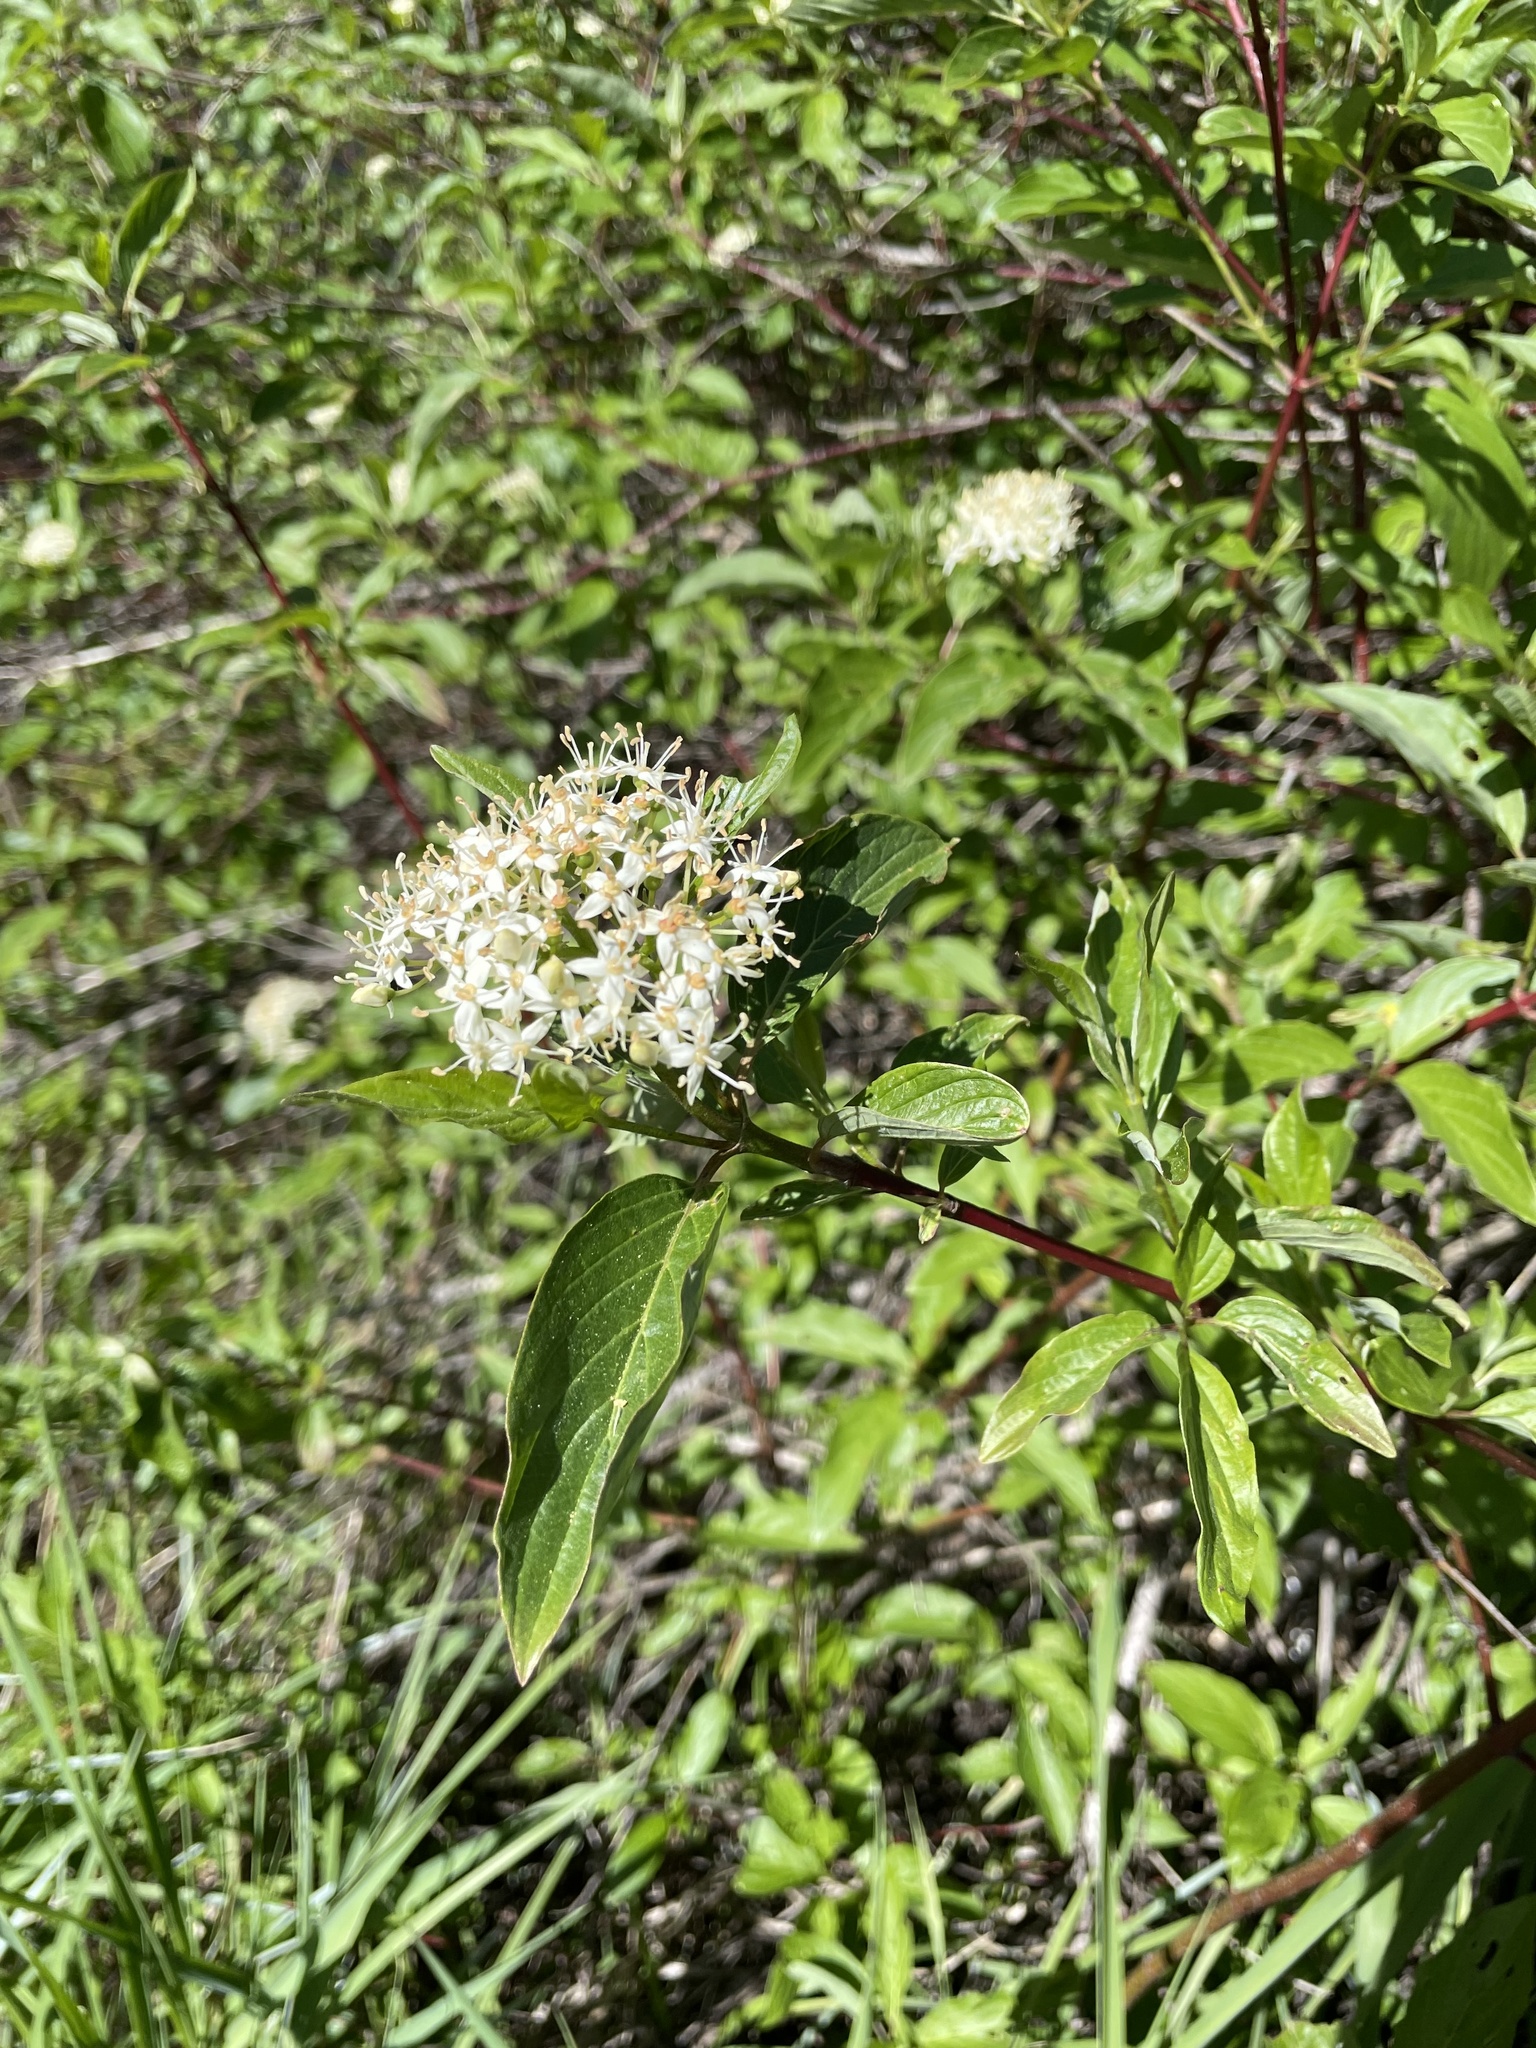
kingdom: Plantae
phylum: Tracheophyta
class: Magnoliopsida
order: Cornales
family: Cornaceae
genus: Cornus
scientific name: Cornus sericea
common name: Red-osier dogwood
